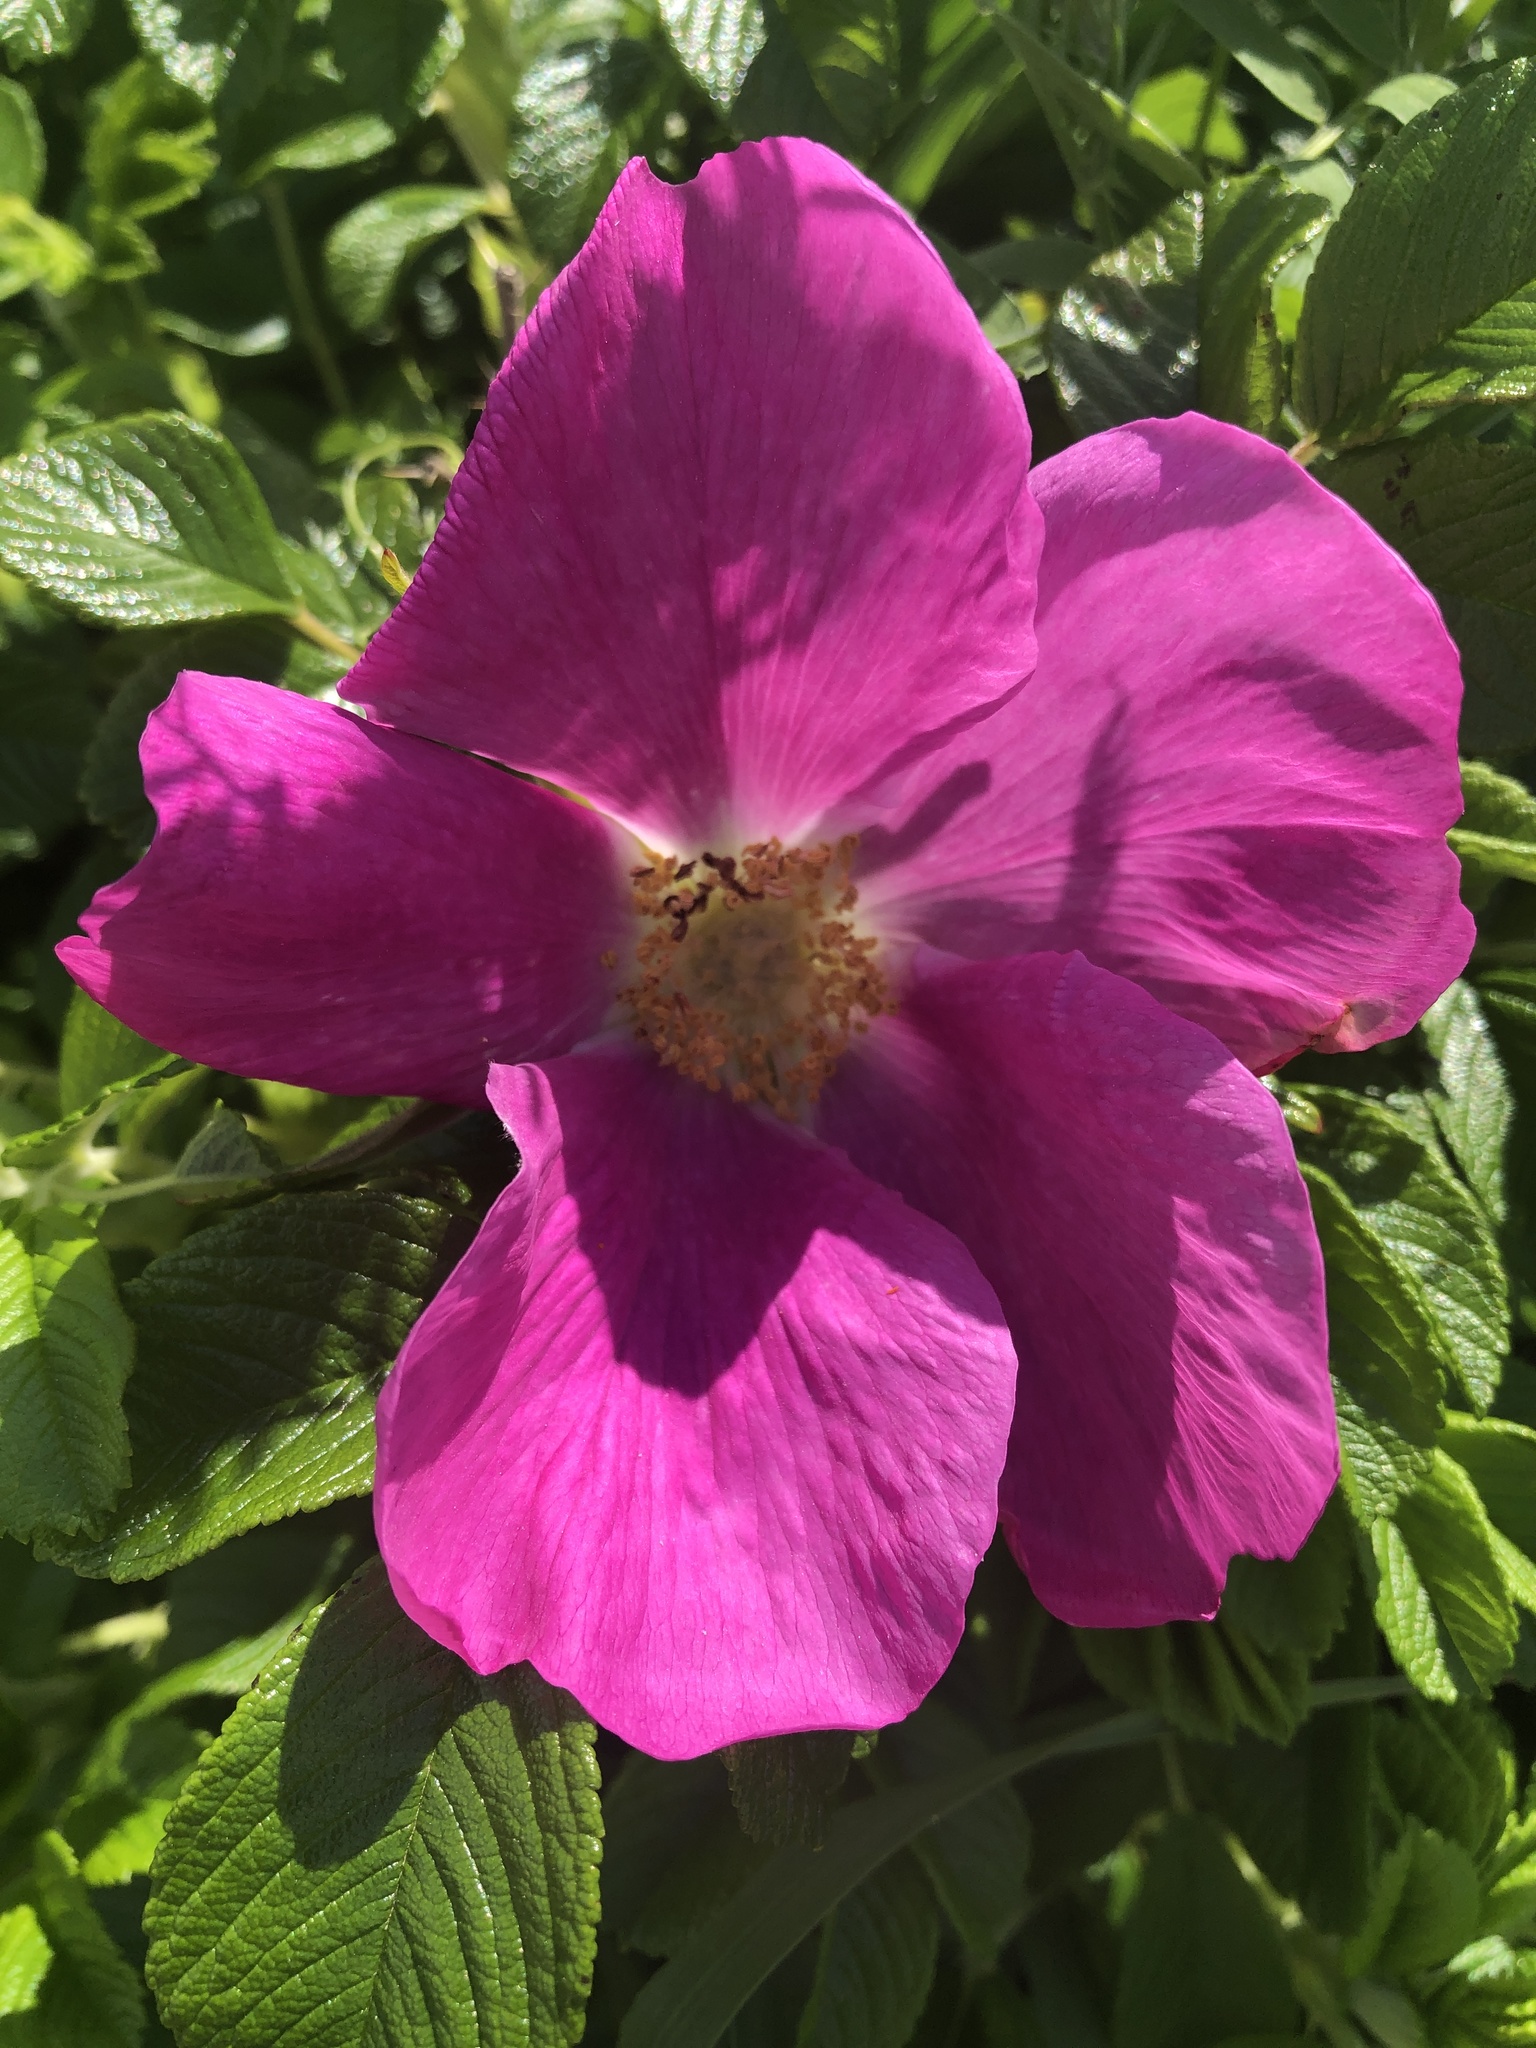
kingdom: Plantae
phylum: Tracheophyta
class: Magnoliopsida
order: Rosales
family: Rosaceae
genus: Rosa
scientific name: Rosa rugosa
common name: Japanese rose
